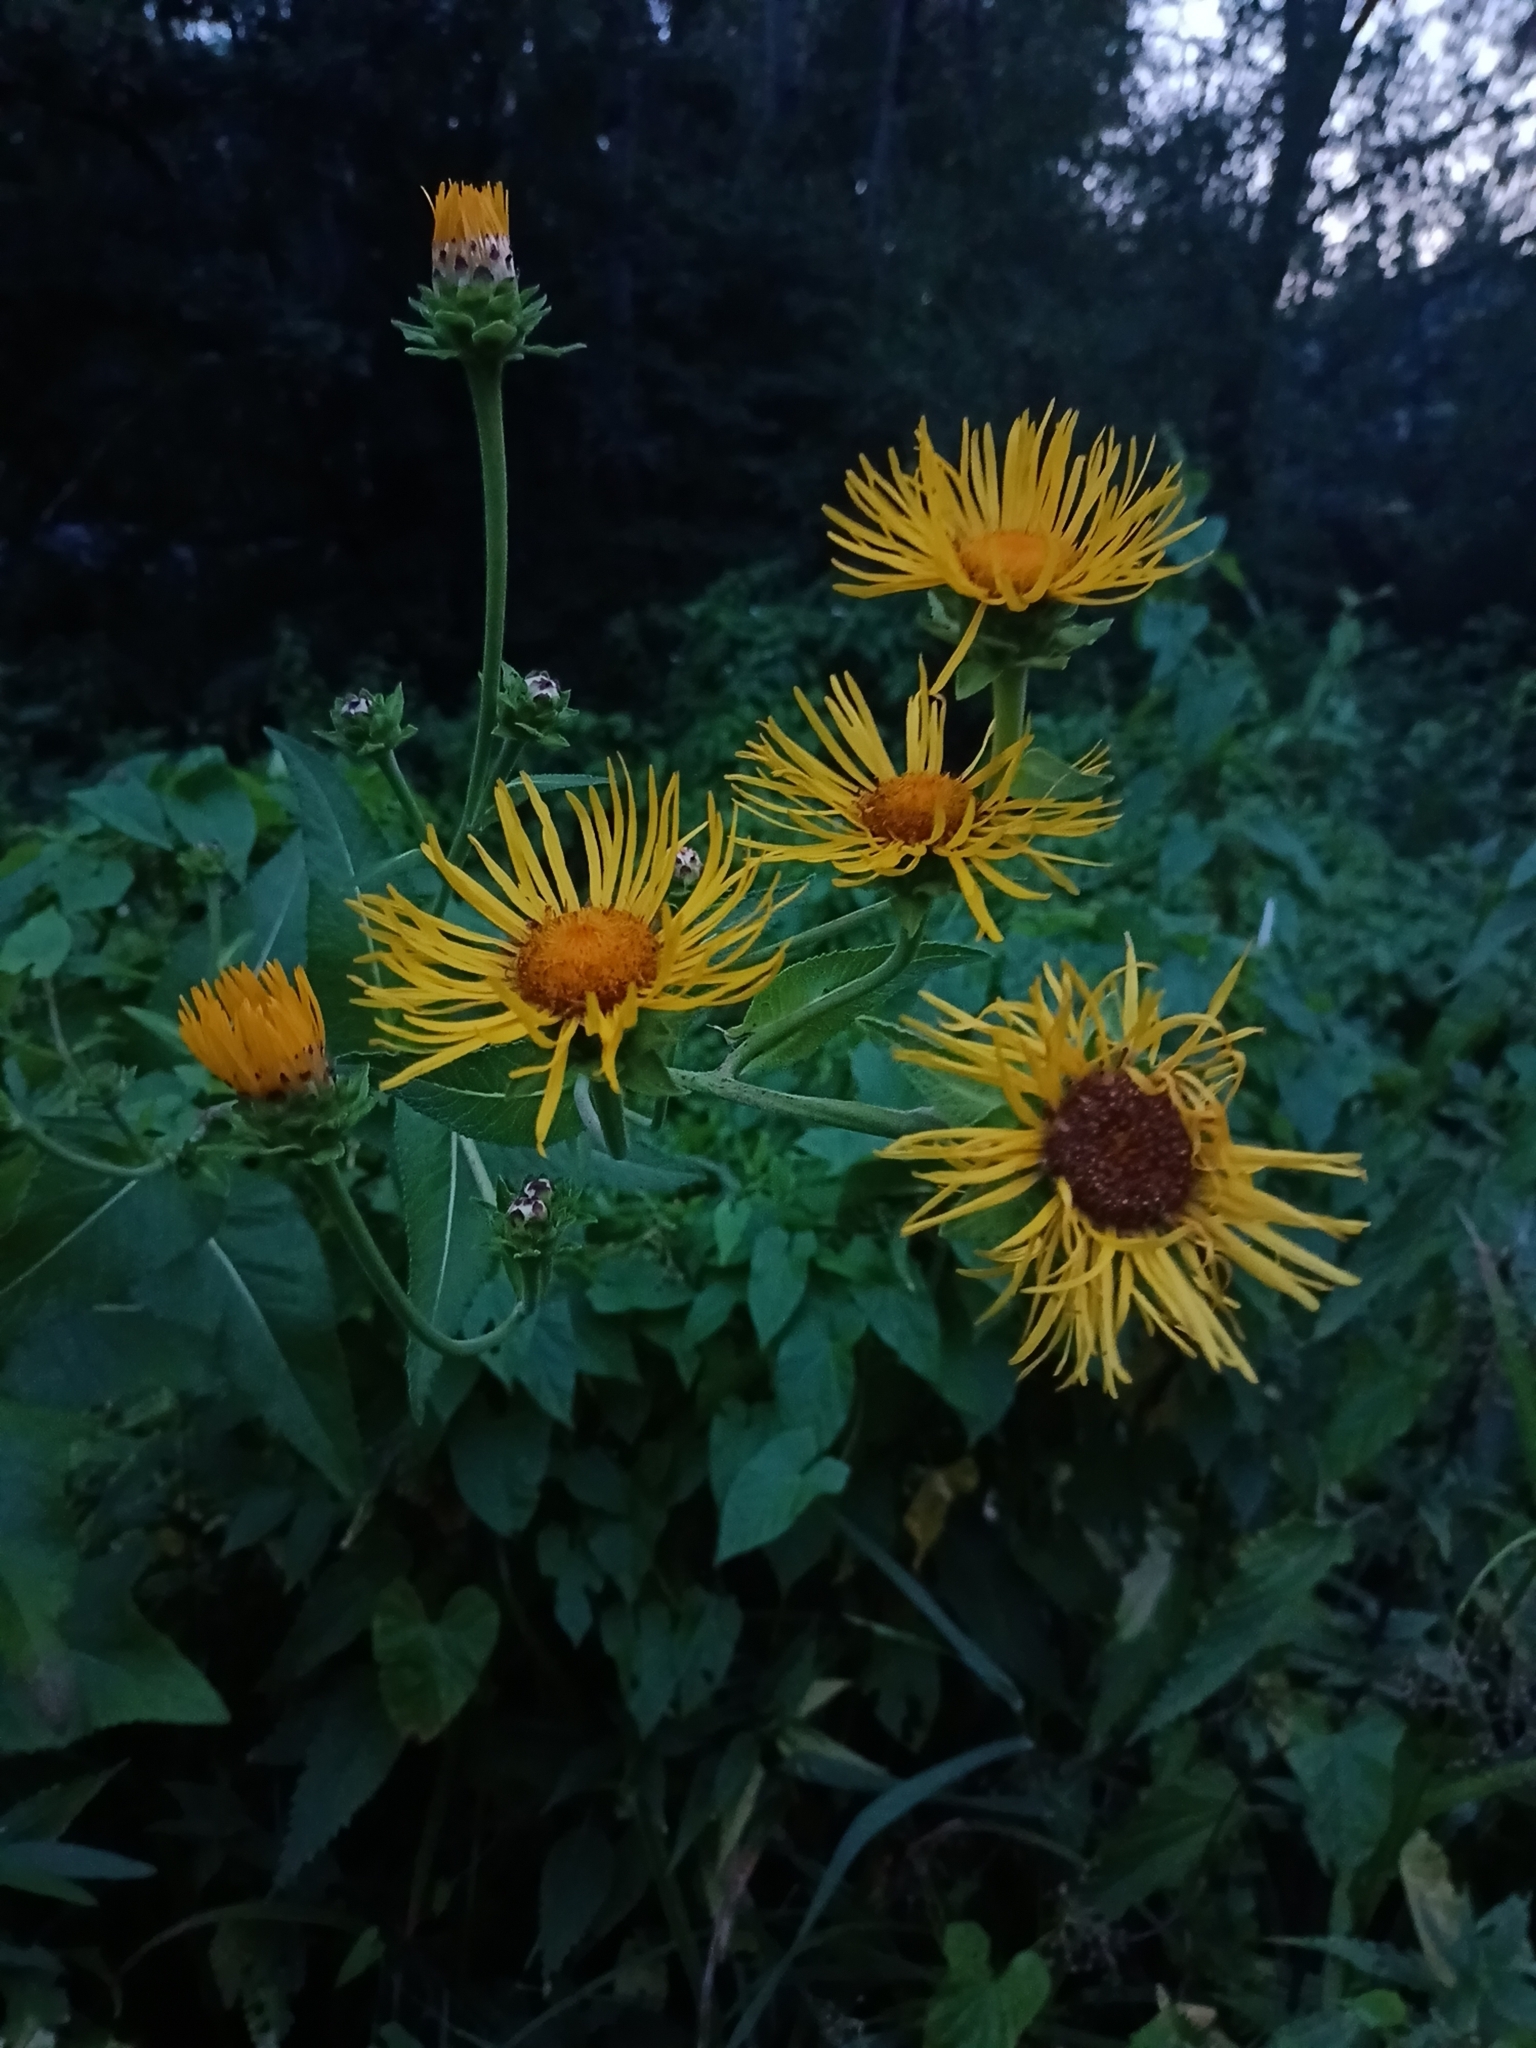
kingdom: Plantae
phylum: Tracheophyta
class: Magnoliopsida
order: Asterales
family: Asteraceae
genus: Inula
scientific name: Inula helenium
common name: Elecampane
